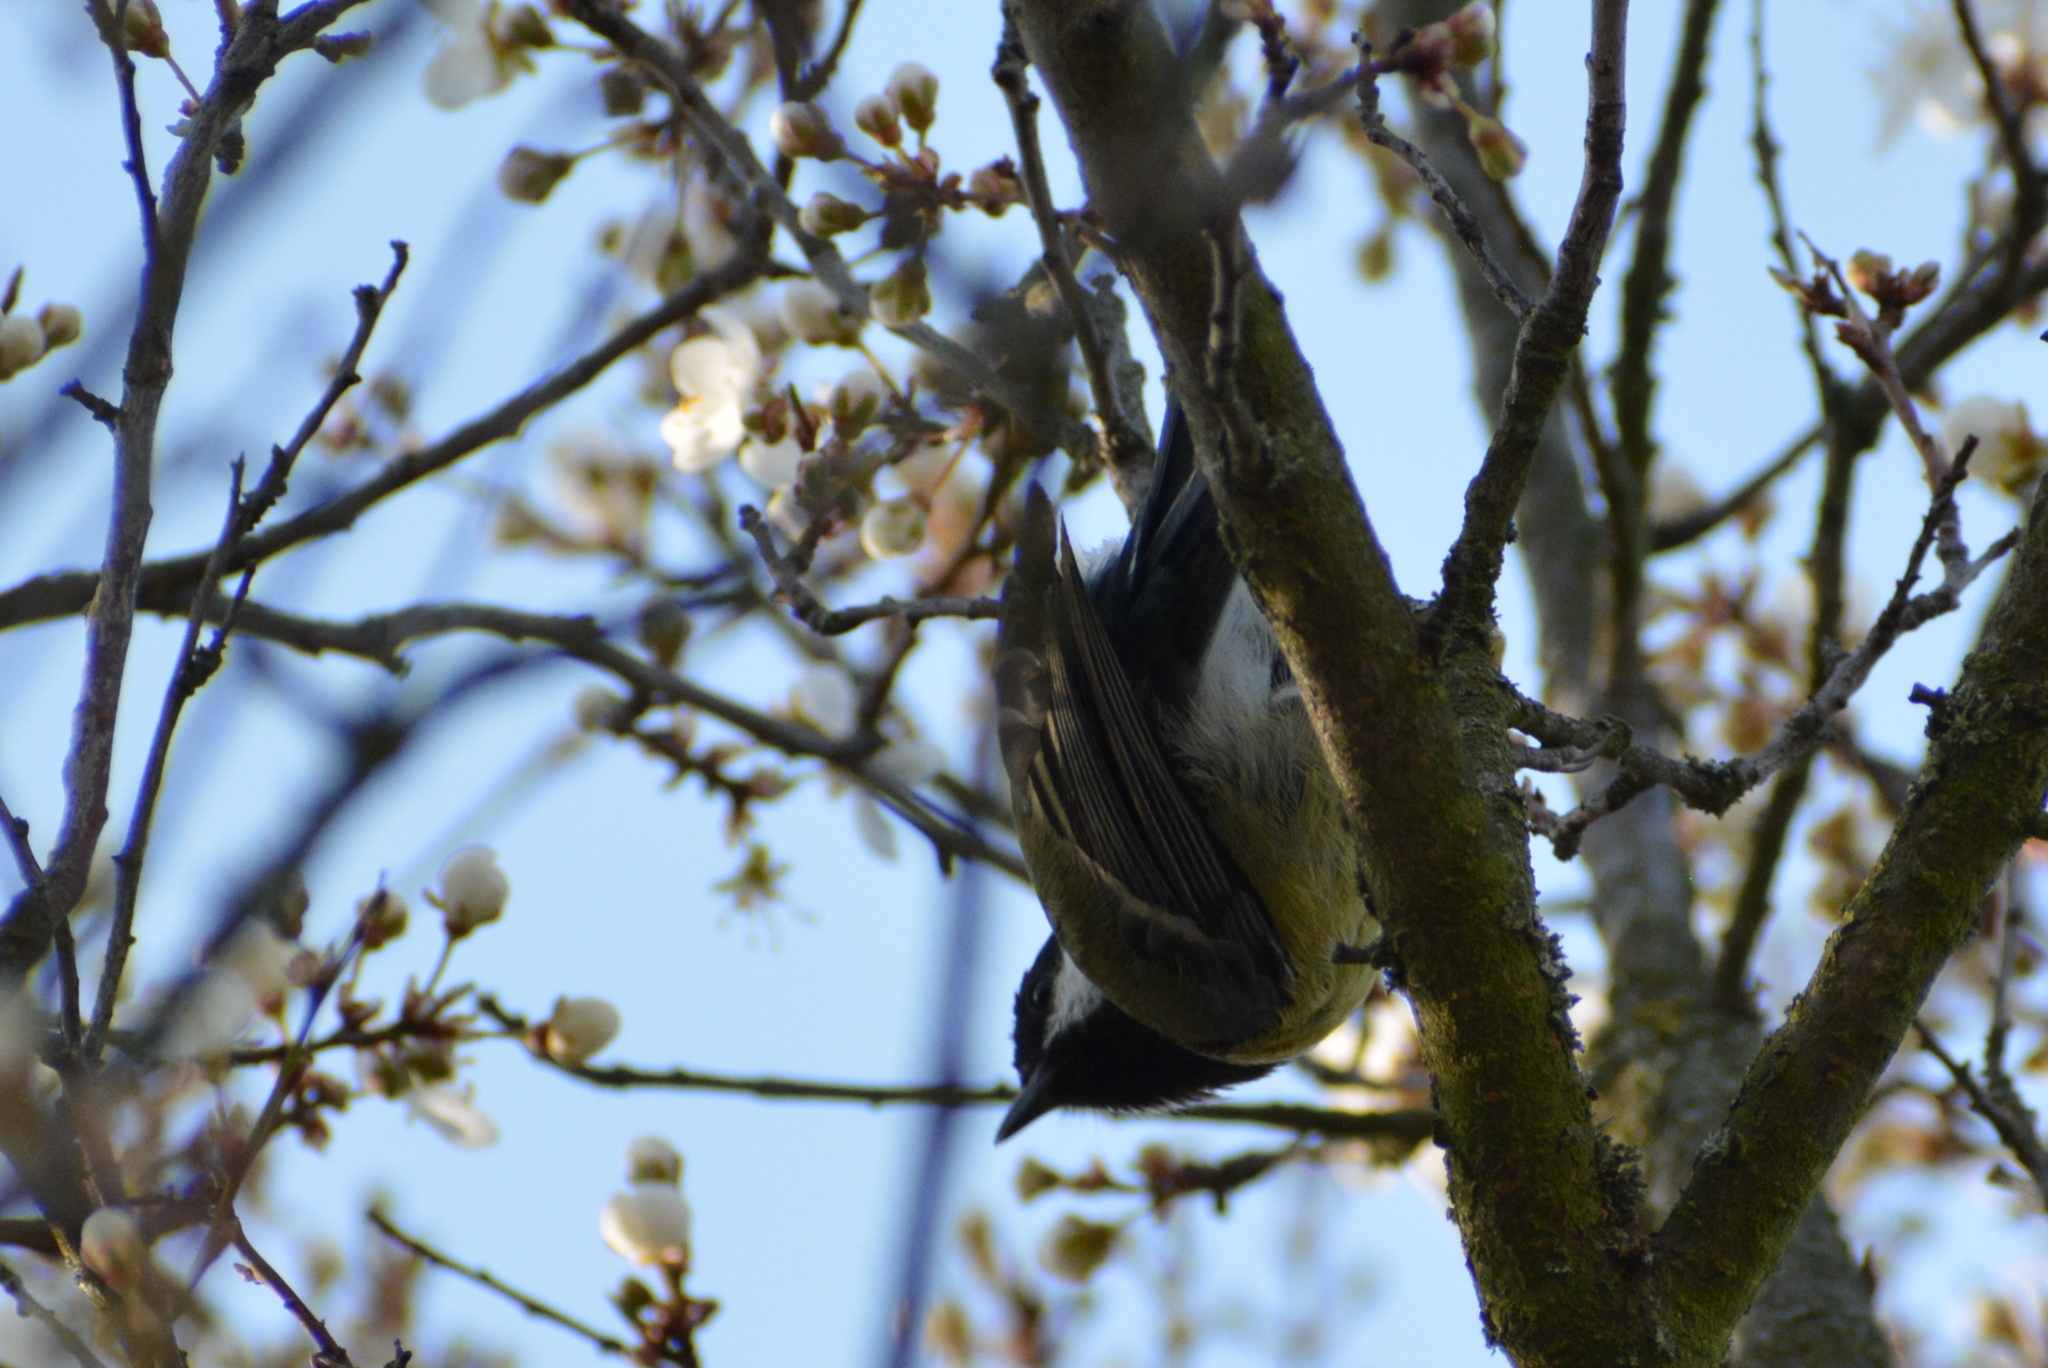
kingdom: Animalia
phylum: Chordata
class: Aves
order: Passeriformes
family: Paridae
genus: Parus
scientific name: Parus major
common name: Great tit
